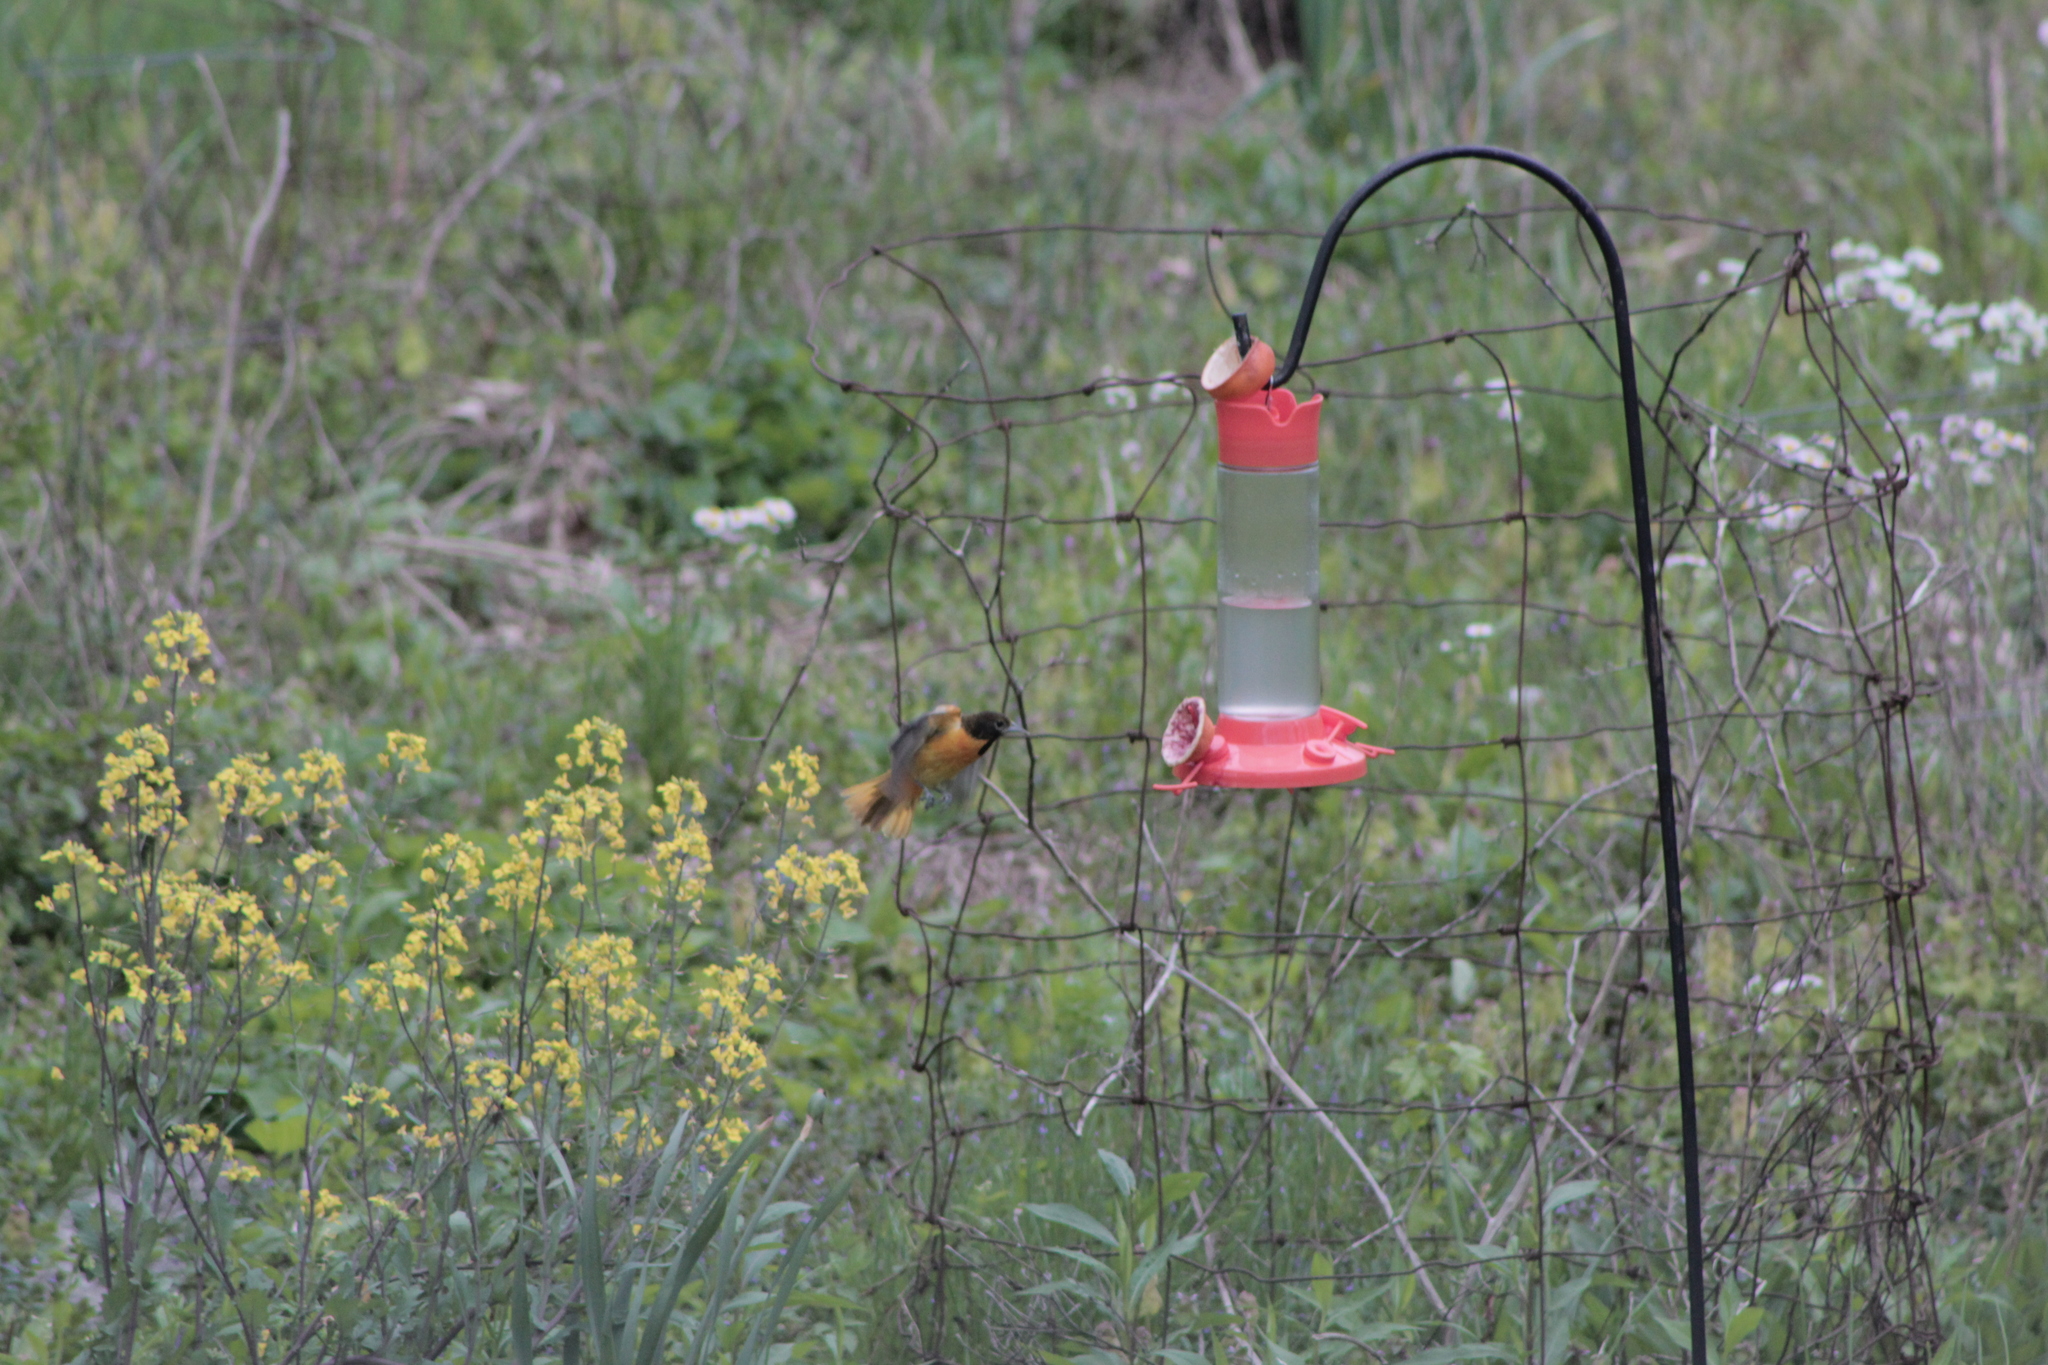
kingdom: Animalia
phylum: Chordata
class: Aves
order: Passeriformes
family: Icteridae
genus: Icterus
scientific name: Icterus galbula
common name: Baltimore oriole
